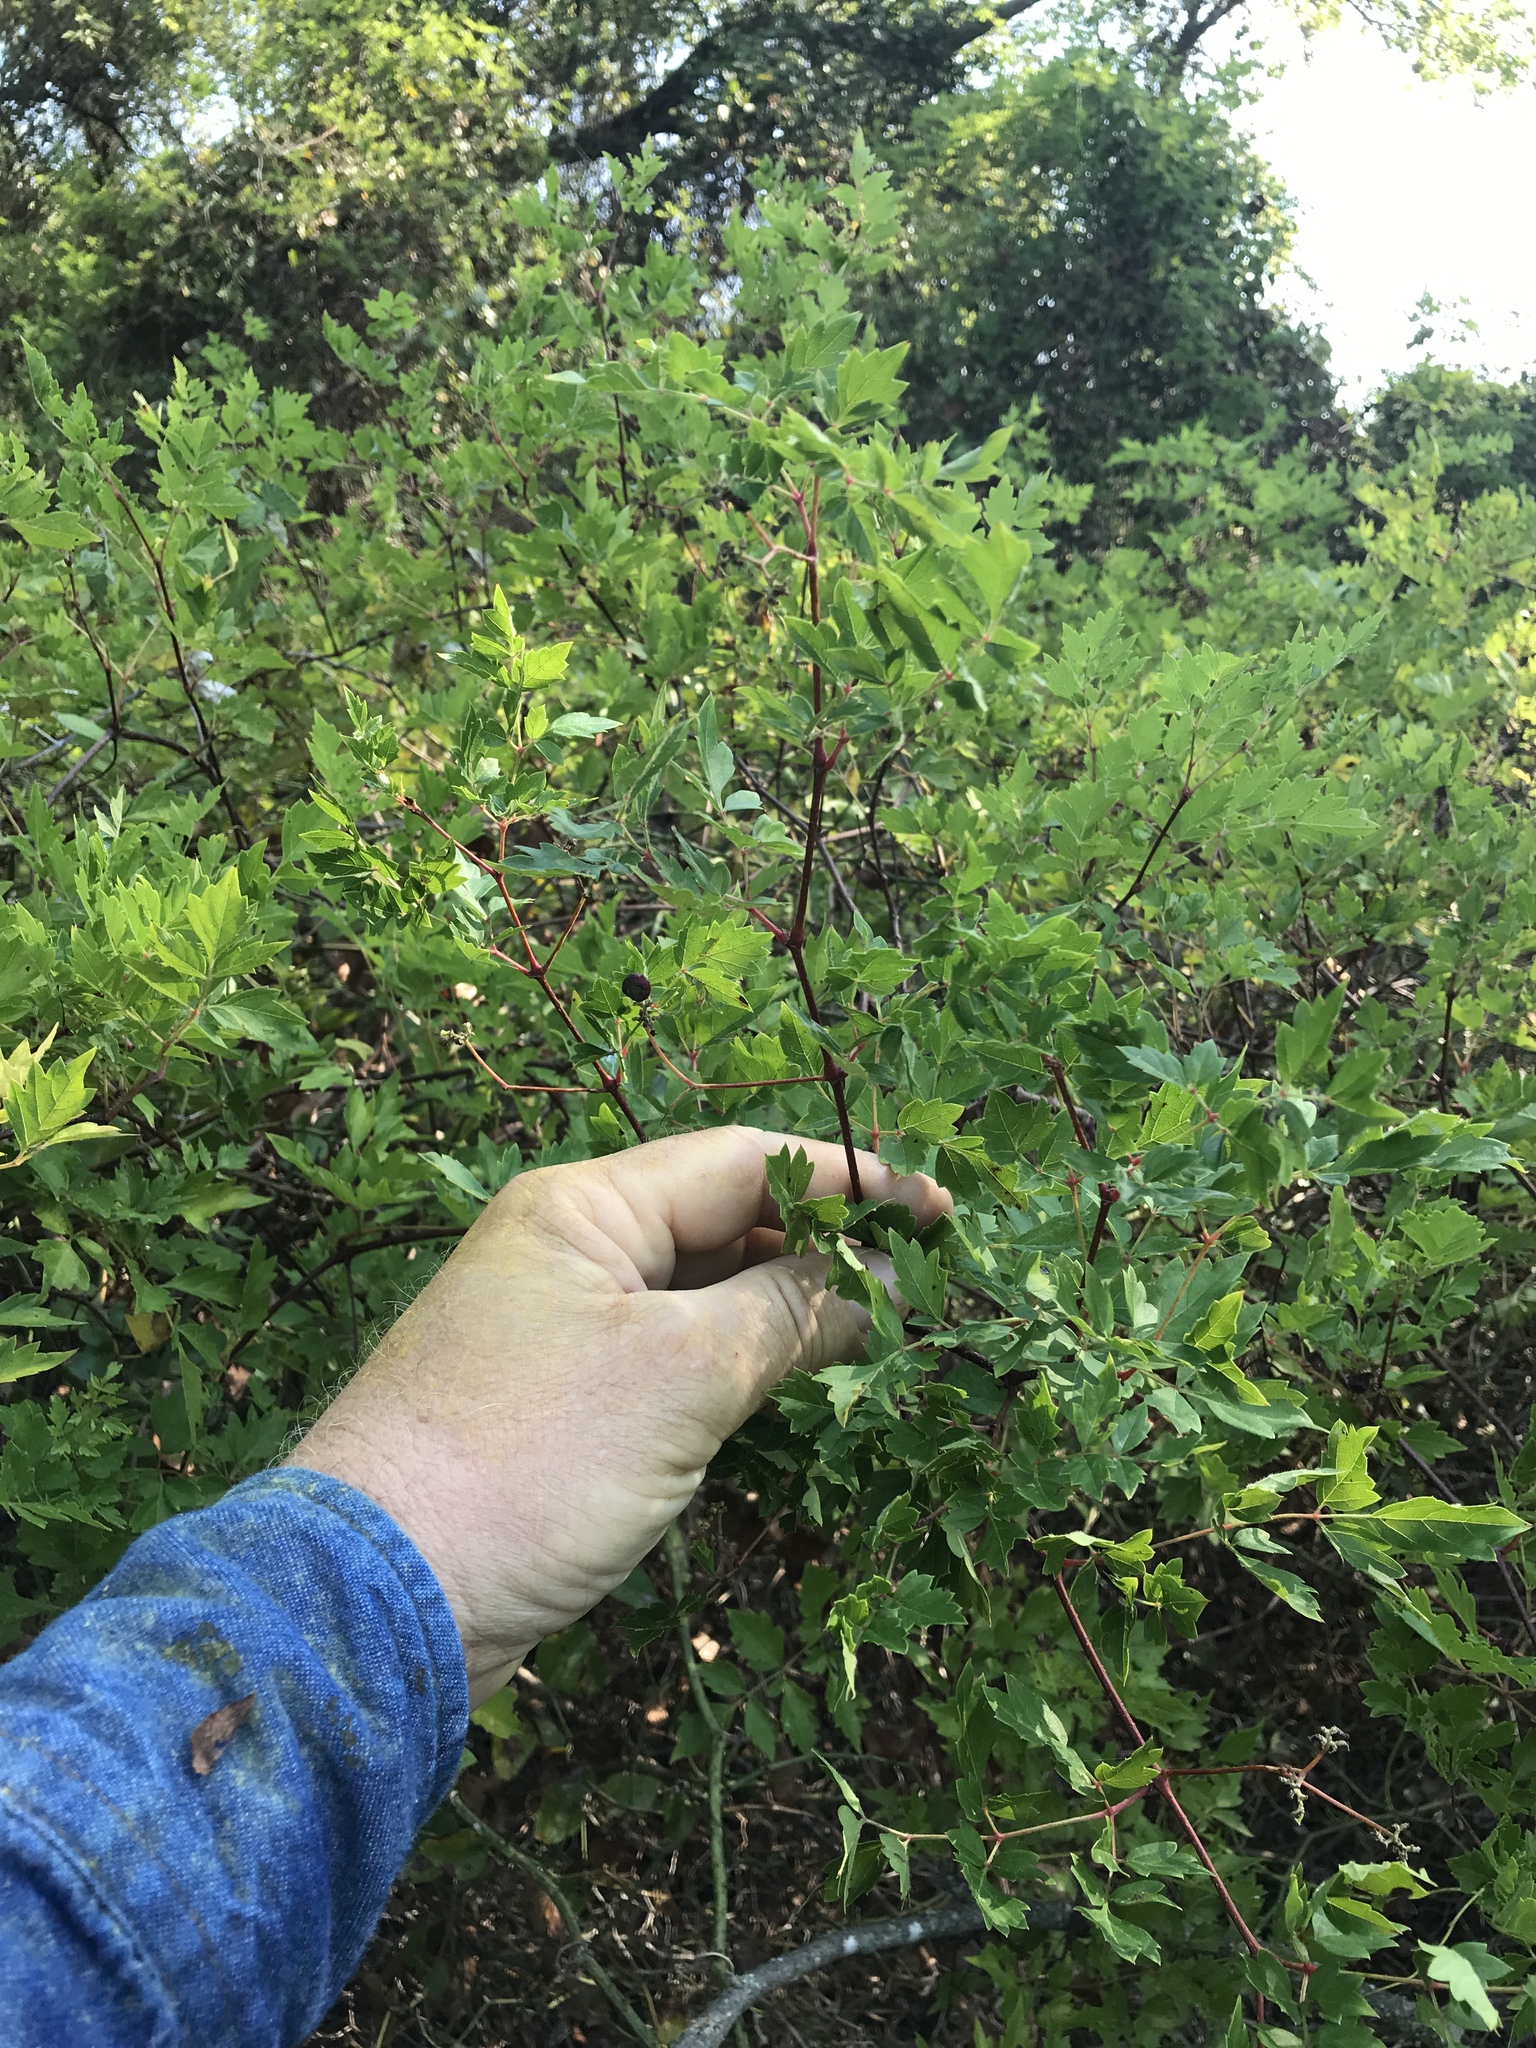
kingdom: Plantae
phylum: Tracheophyta
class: Magnoliopsida
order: Vitales
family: Vitaceae
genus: Nekemias
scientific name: Nekemias arborea
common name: Peppervine
